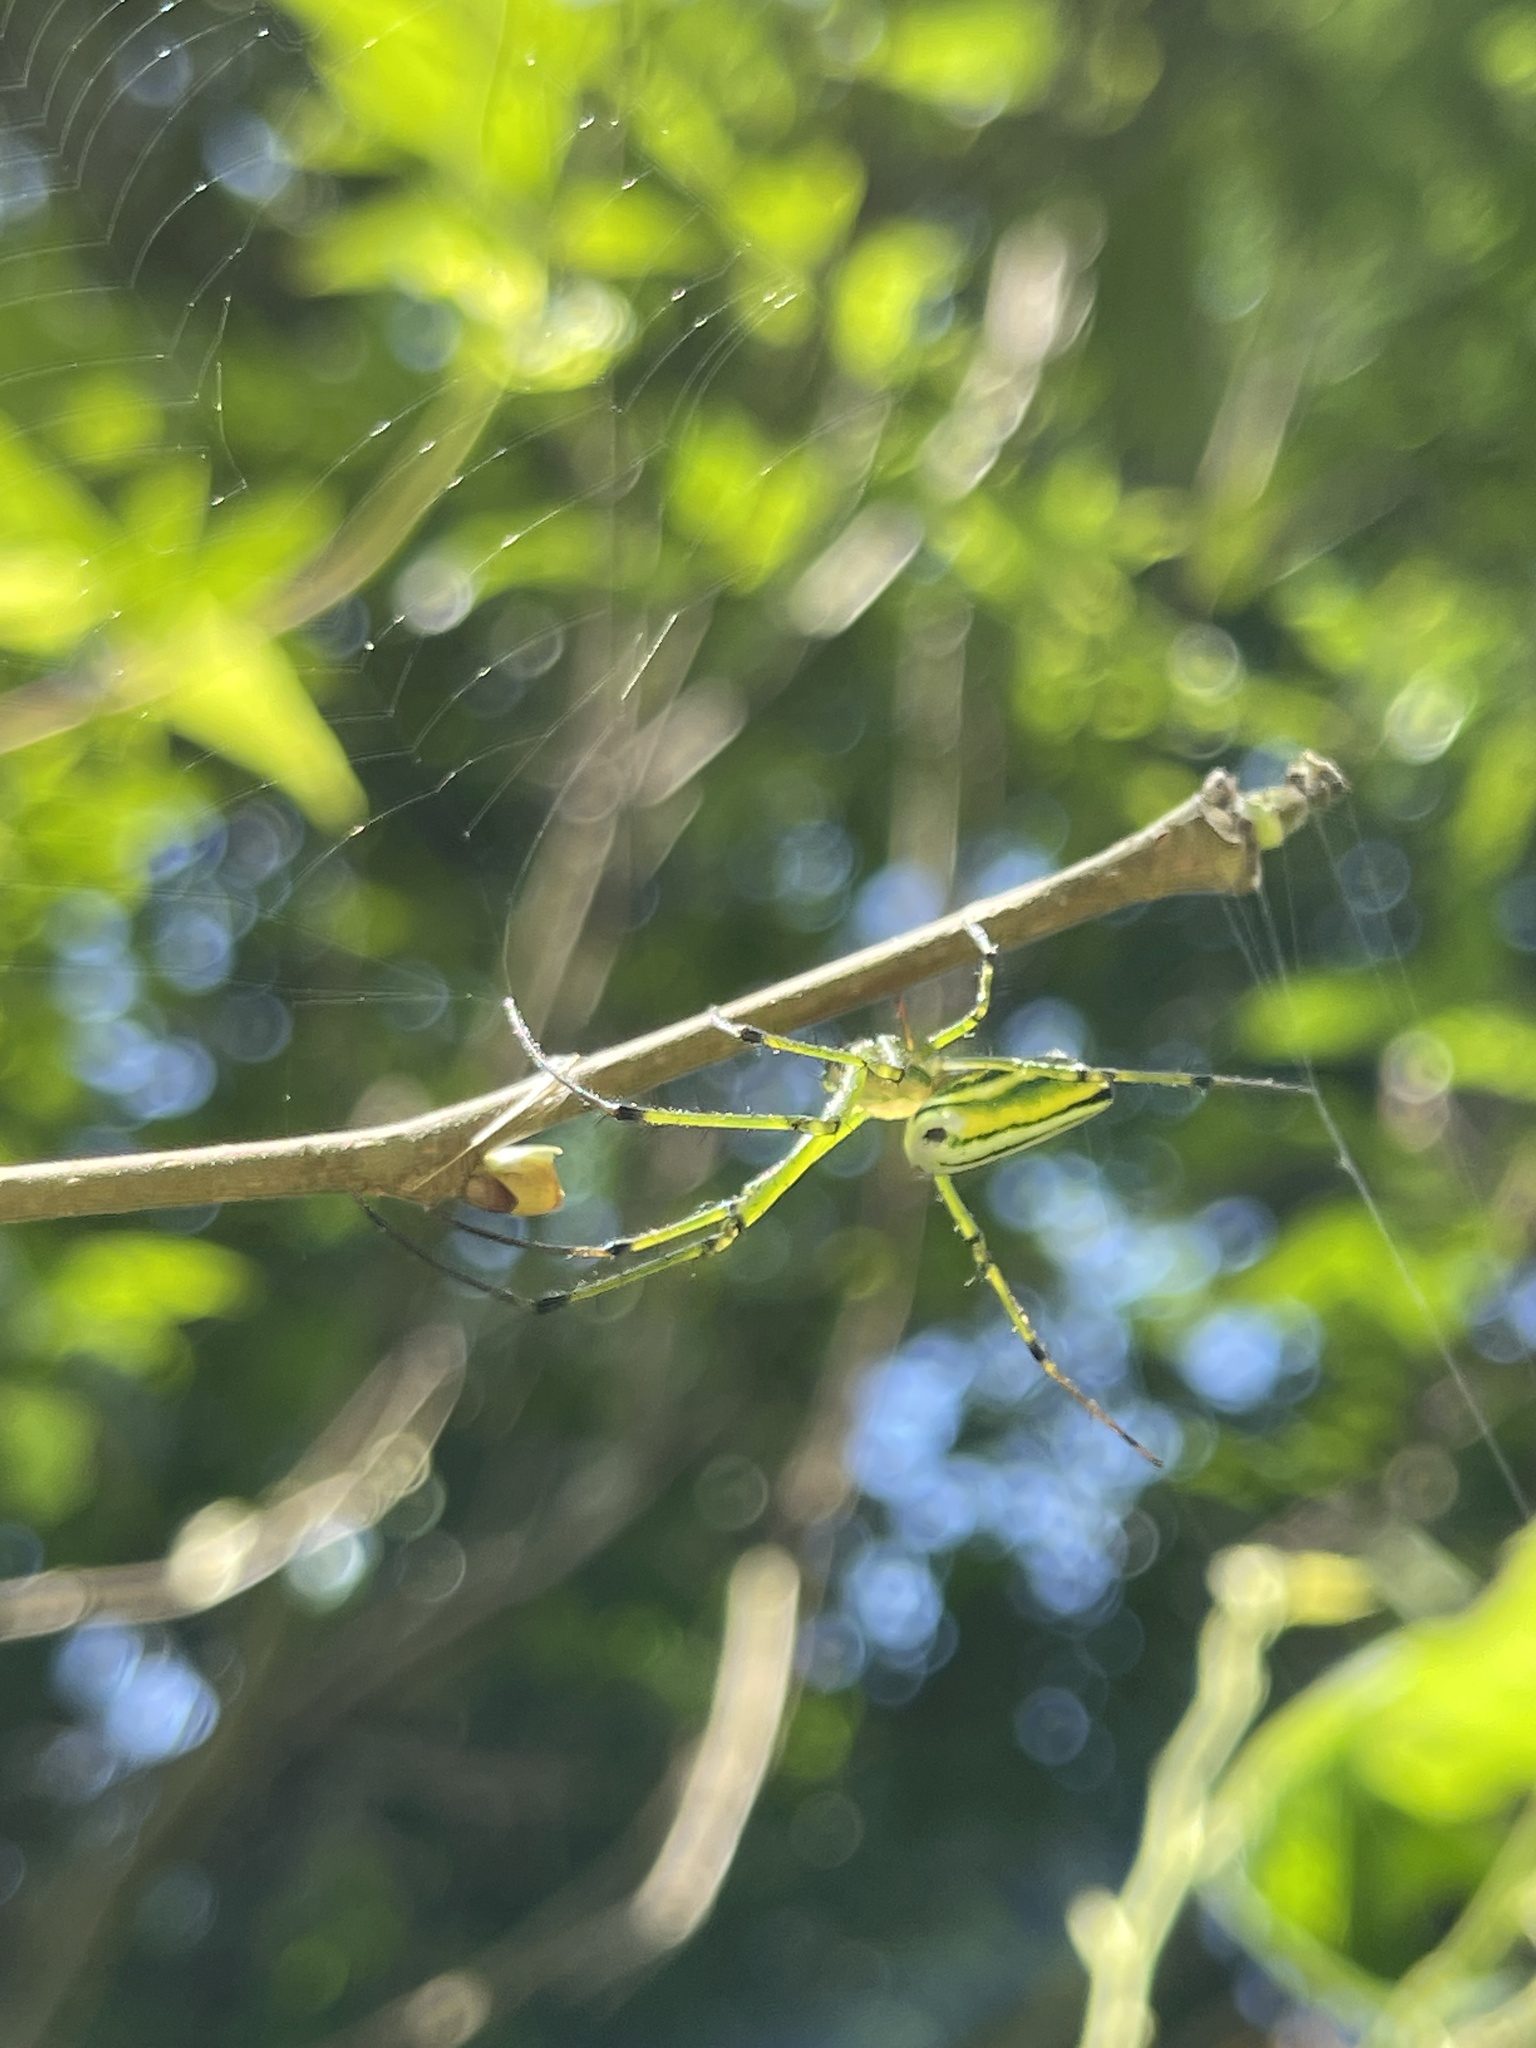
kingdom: Animalia
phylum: Arthropoda
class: Arachnida
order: Araneae
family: Tetragnathidae
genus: Leucauge
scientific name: Leucauge blanda
